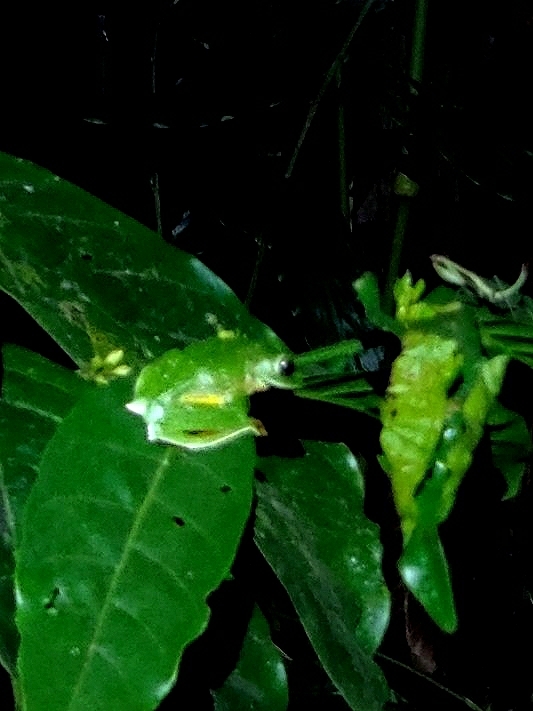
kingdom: Animalia
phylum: Chordata
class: Amphibia
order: Anura
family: Rhacophoridae
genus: Rhacophorus
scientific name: Rhacophorus malabaricus
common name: Malabar gliding frog
